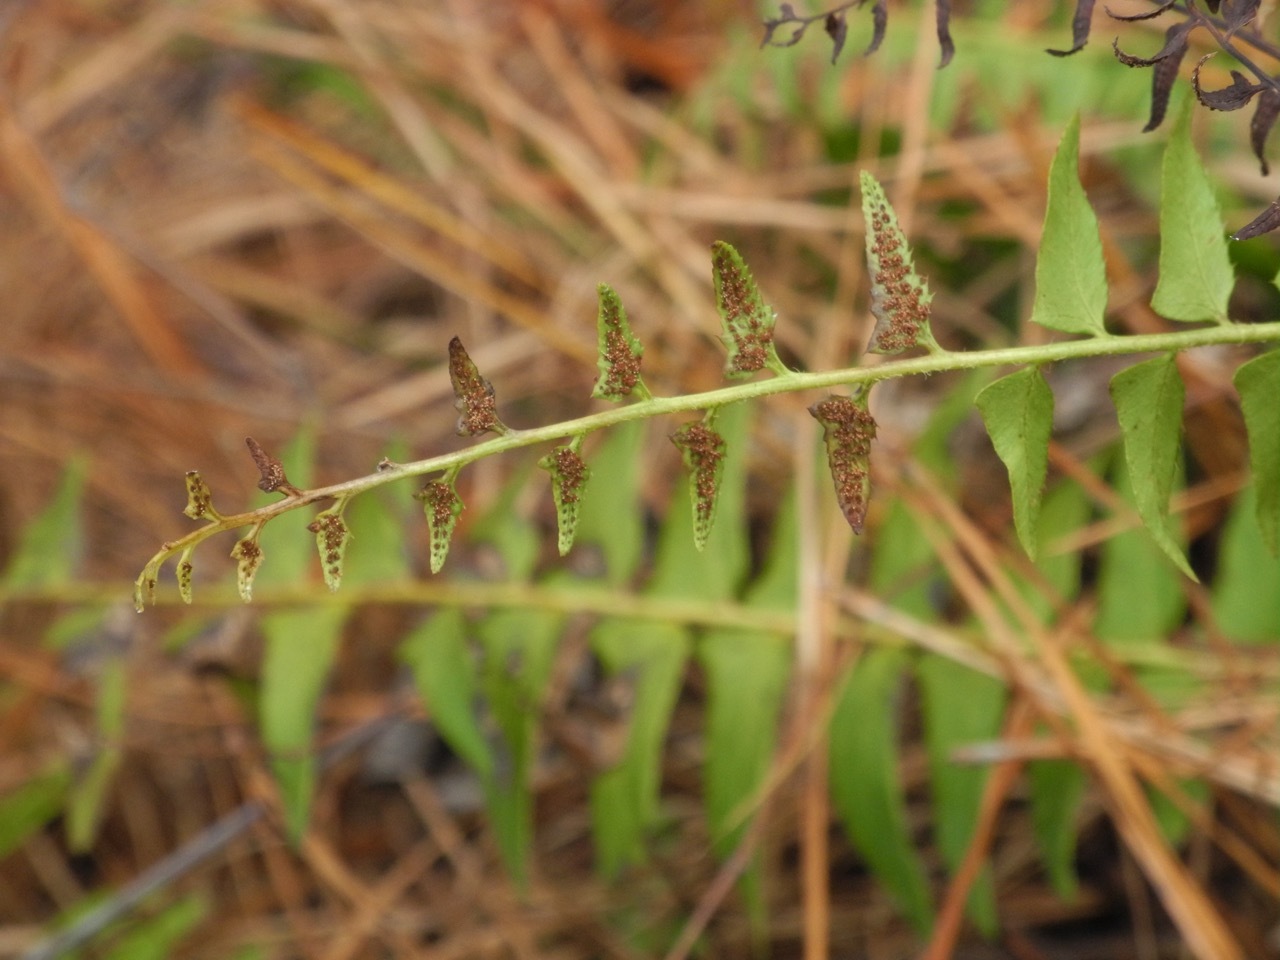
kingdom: Plantae
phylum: Tracheophyta
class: Polypodiopsida
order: Polypodiales
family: Dryopteridaceae
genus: Polystichum
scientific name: Polystichum acrostichoides
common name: Christmas fern
